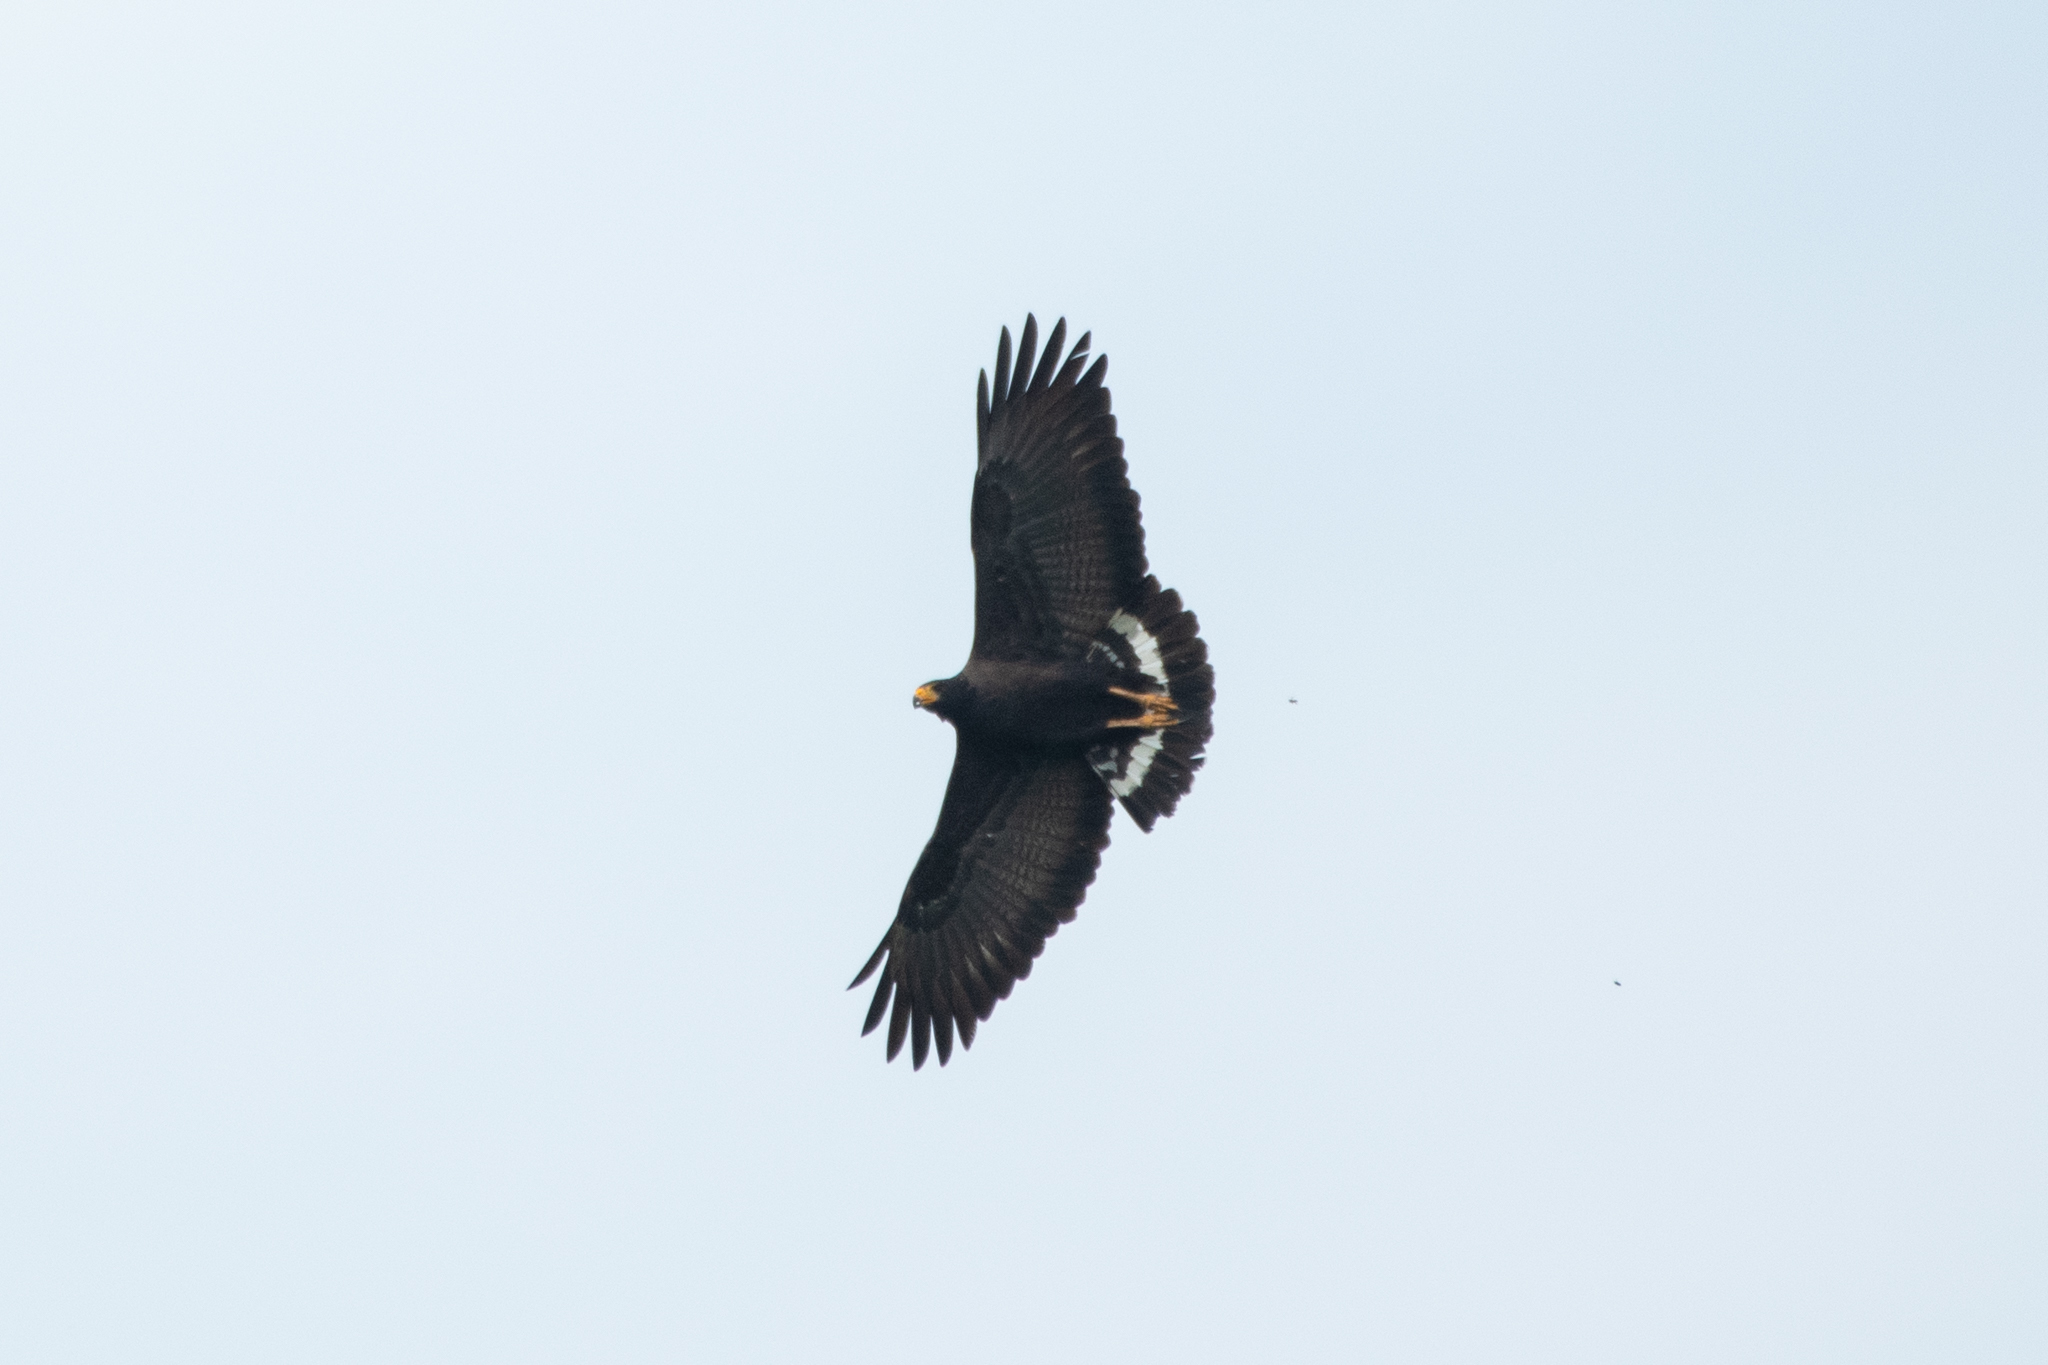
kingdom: Animalia
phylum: Chordata
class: Aves
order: Accipitriformes
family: Accipitridae
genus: Buteogallus
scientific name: Buteogallus anthracinus
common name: Common black hawk
